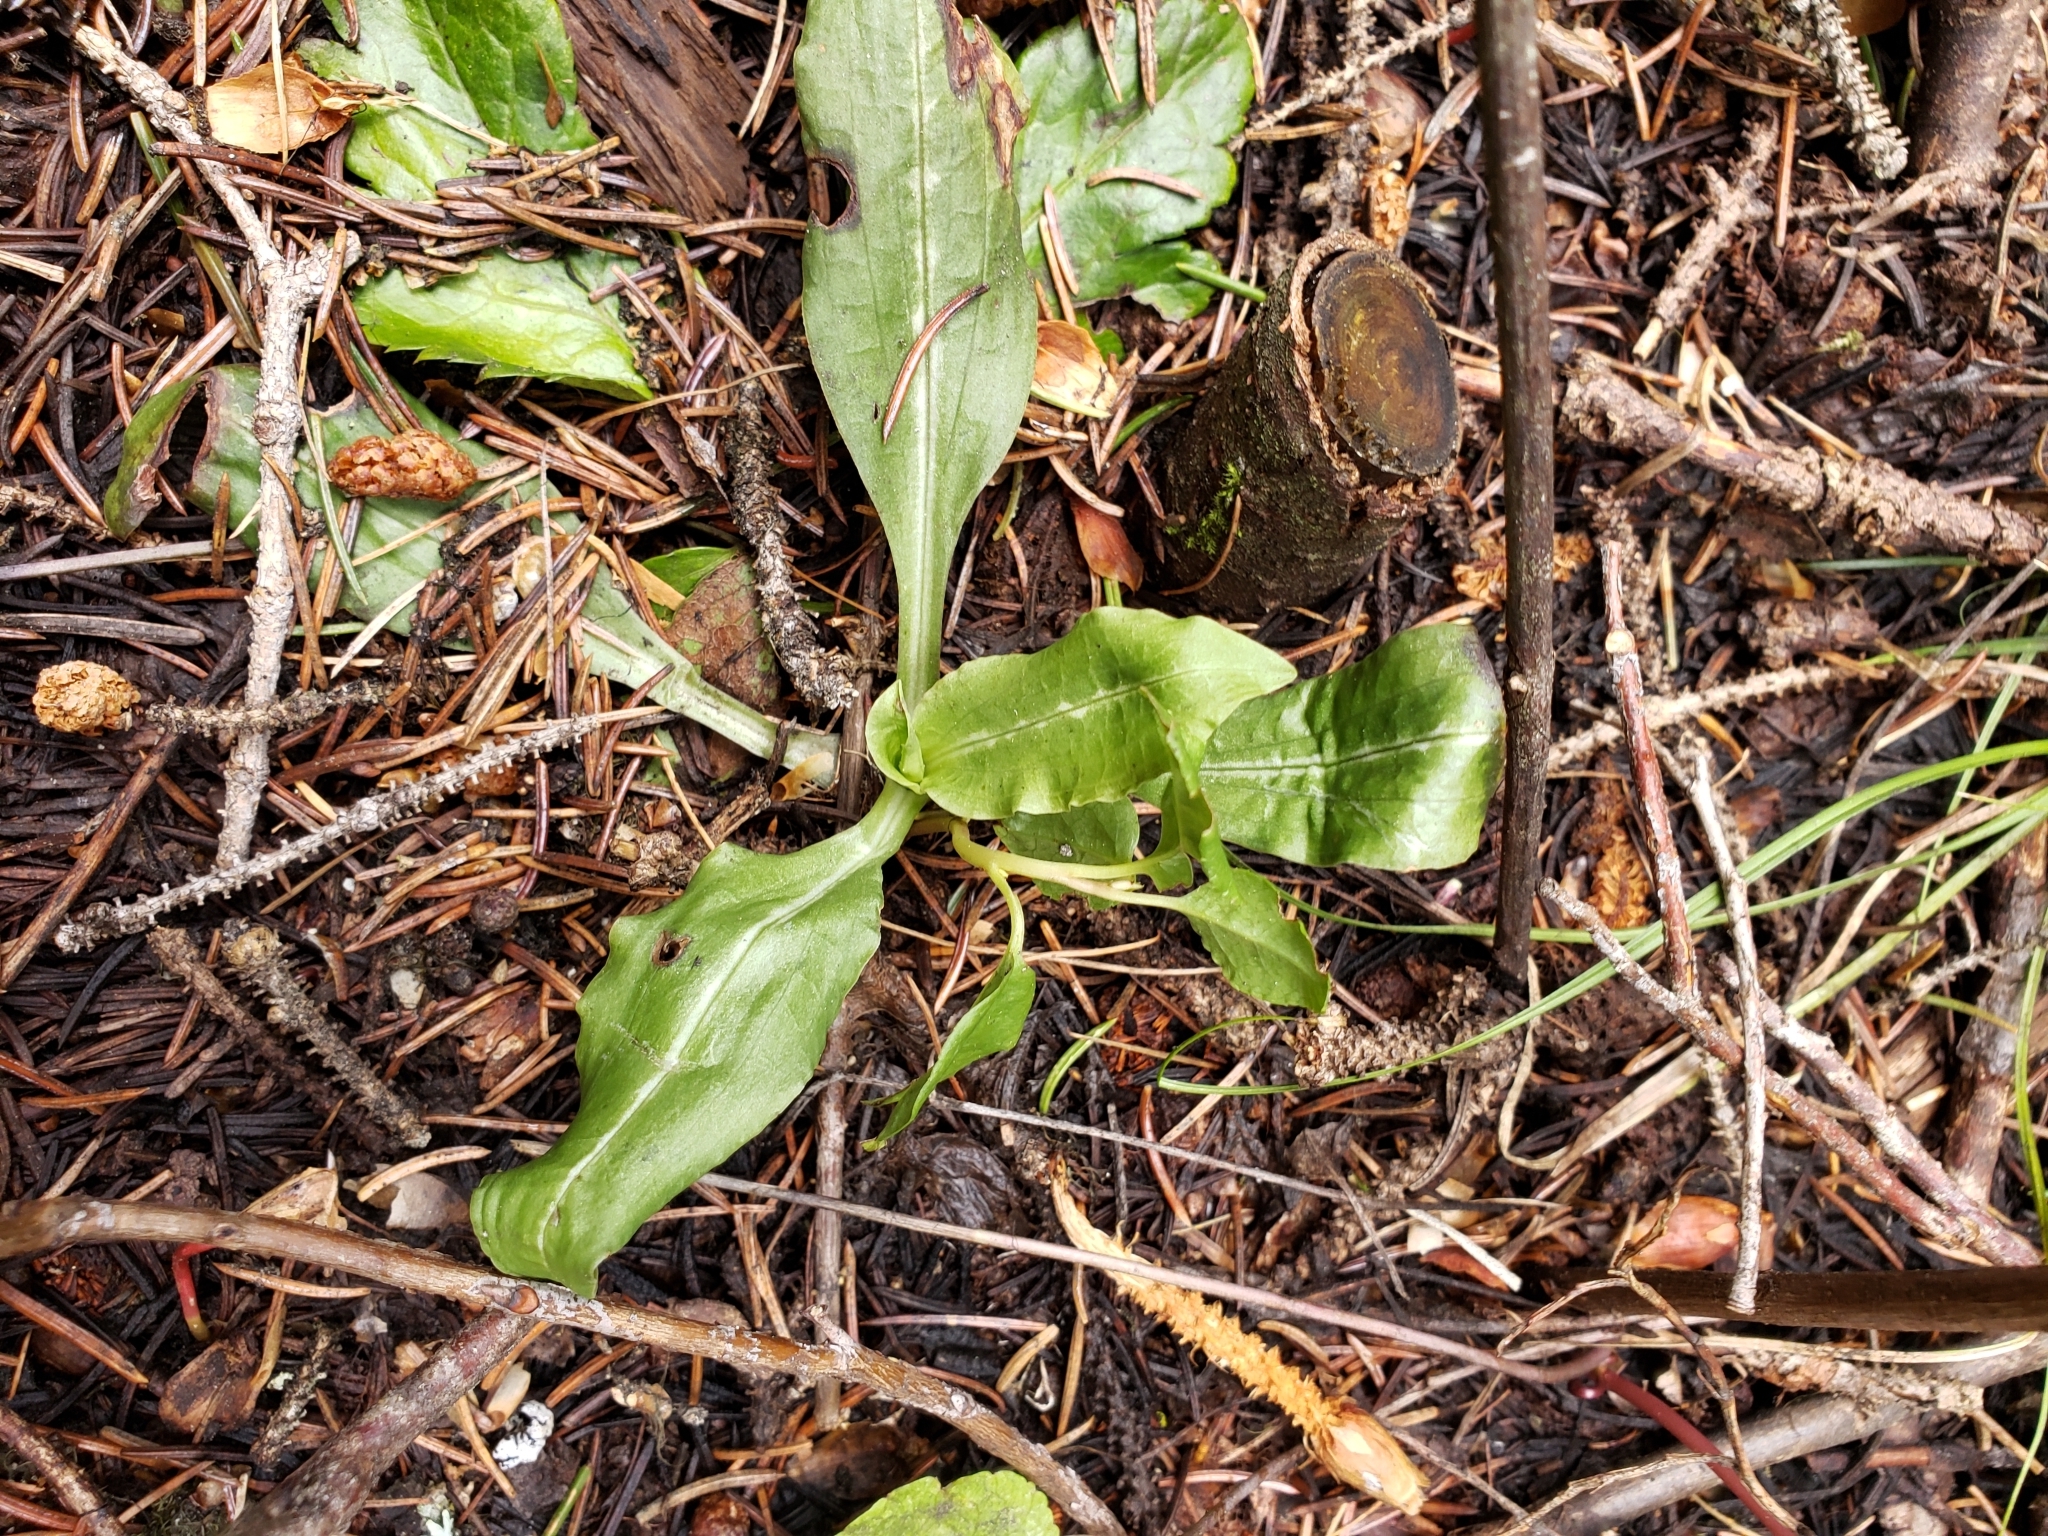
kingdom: Plantae
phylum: Tracheophyta
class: Liliopsida
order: Asparagales
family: Orchidaceae
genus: Goodyera
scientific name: Goodyera oblongifolia
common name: Giant rattlesnake-plantain
